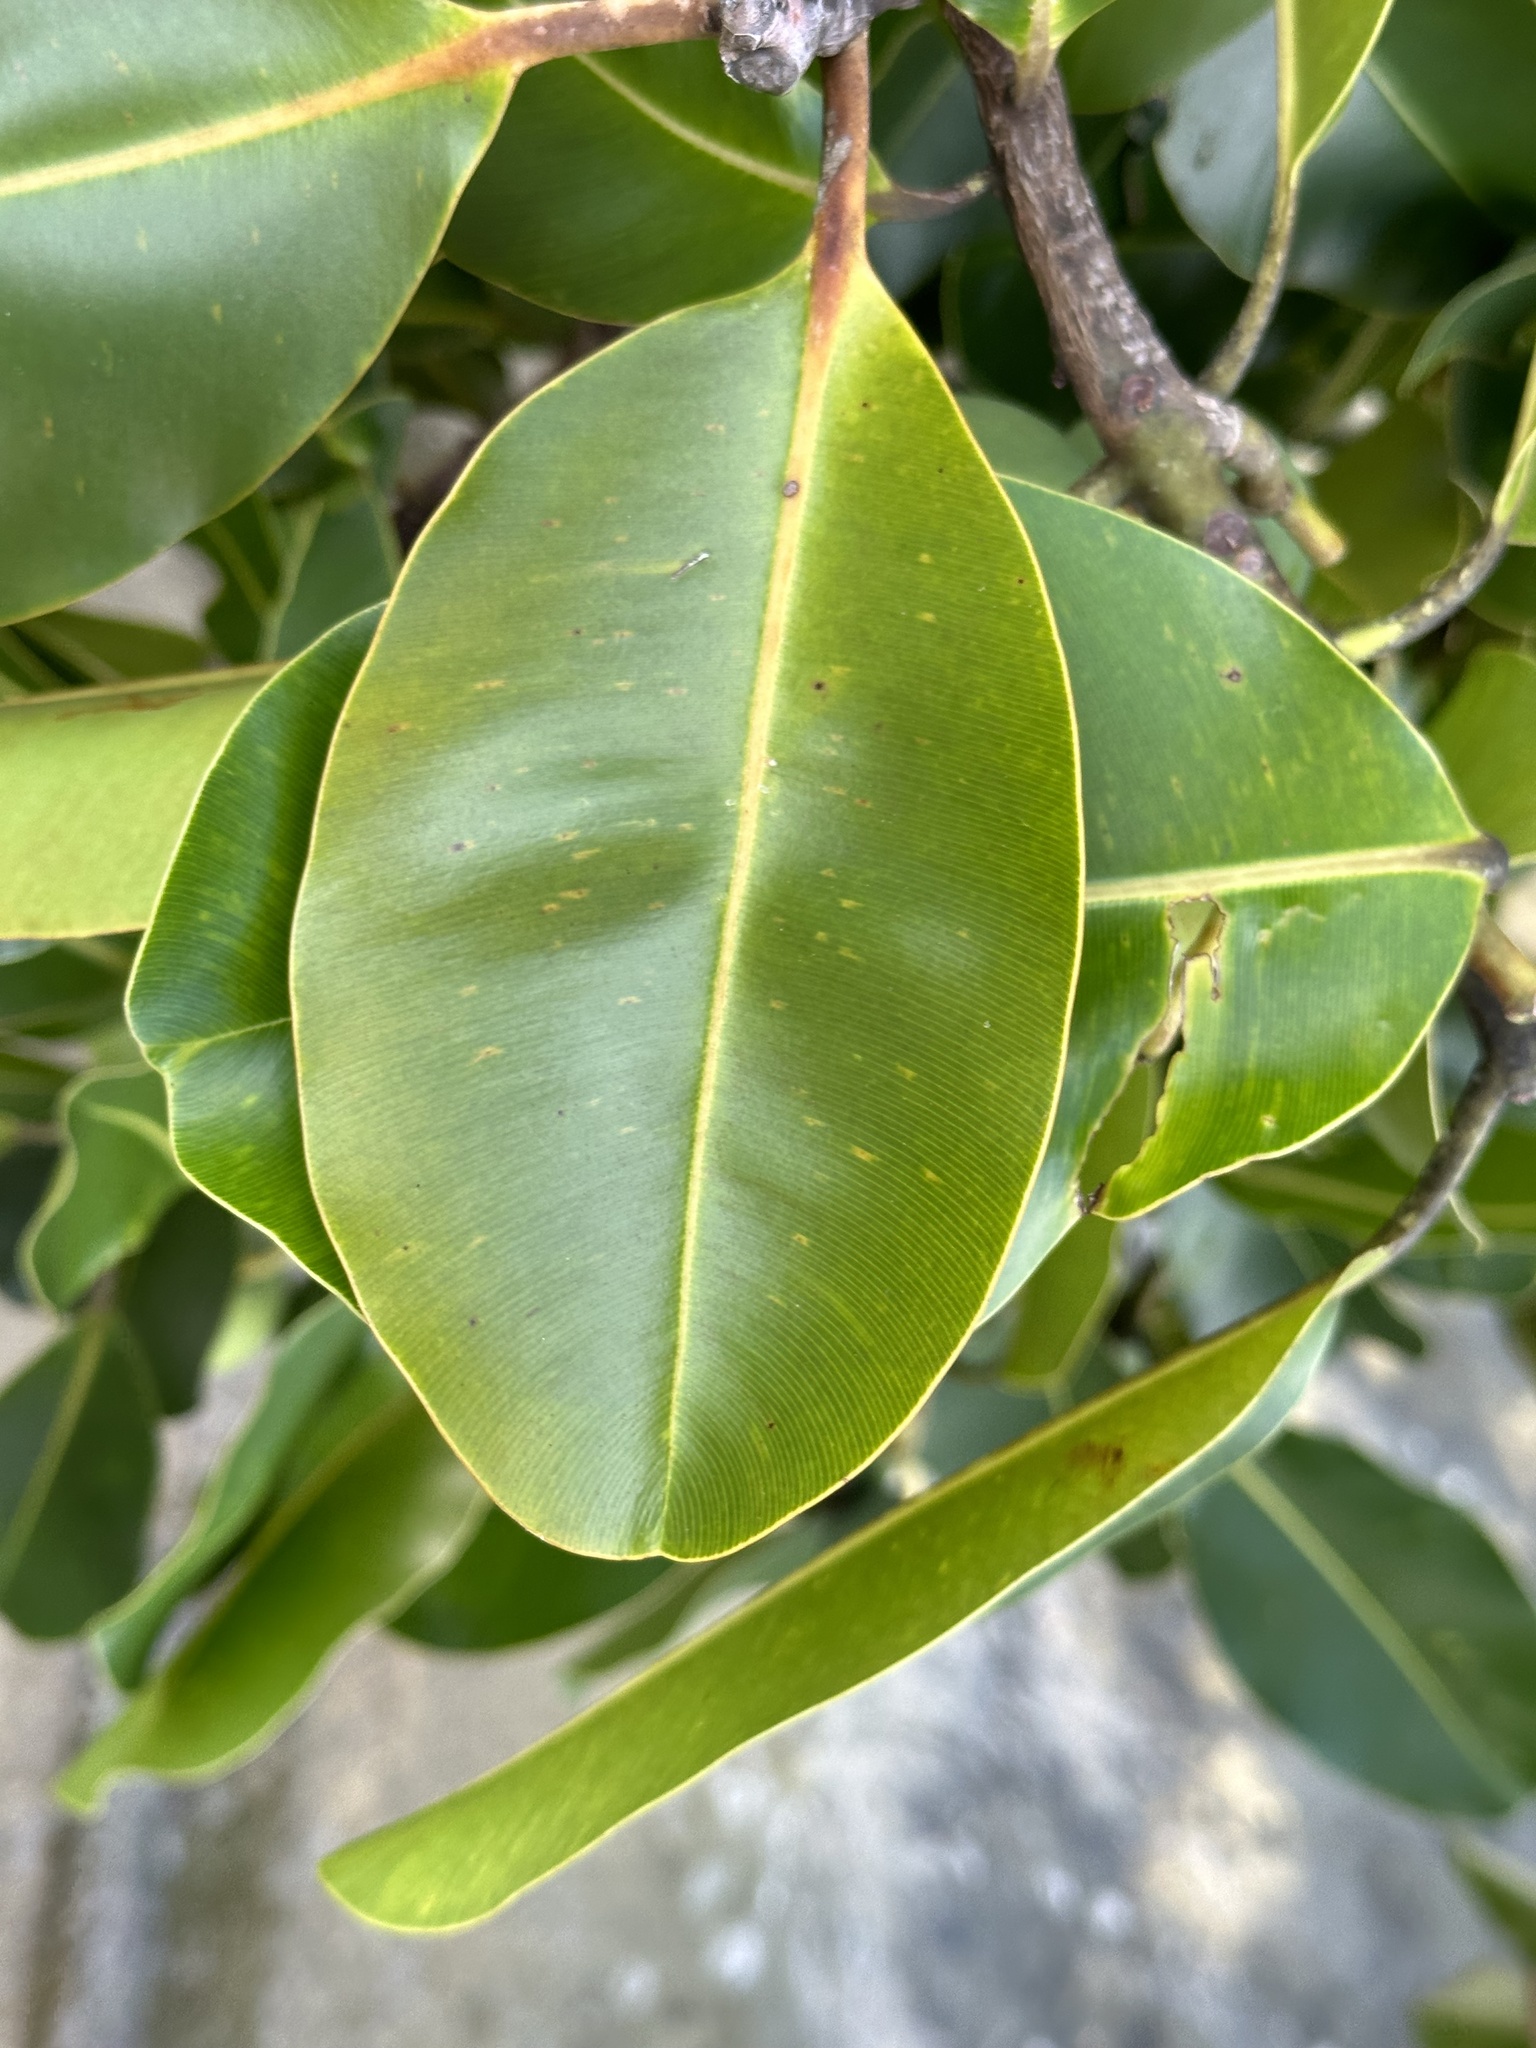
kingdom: Plantae
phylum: Tracheophyta
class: Magnoliopsida
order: Malpighiales
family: Calophyllaceae
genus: Calophyllum
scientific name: Calophyllum inophyllum
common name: Alexandrian laurel
